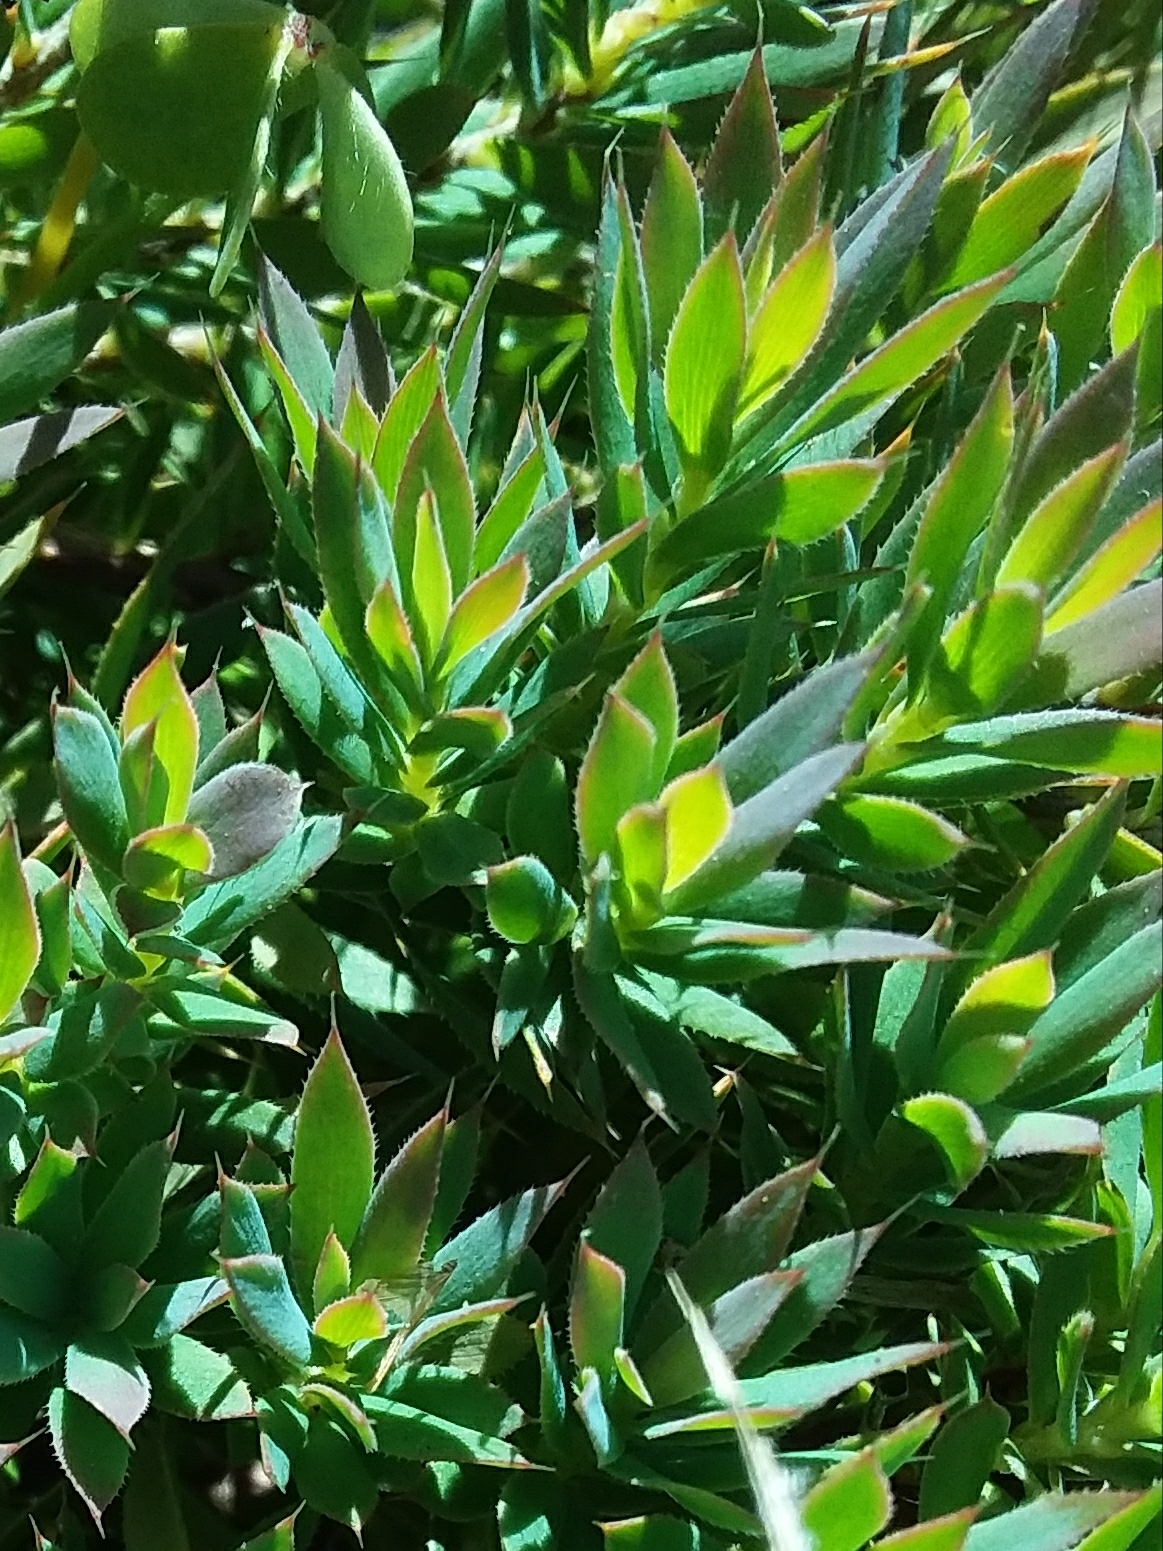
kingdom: Plantae
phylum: Tracheophyta
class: Magnoliopsida
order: Ericales
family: Ericaceae
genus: Styphelia
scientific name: Styphelia humifusa
